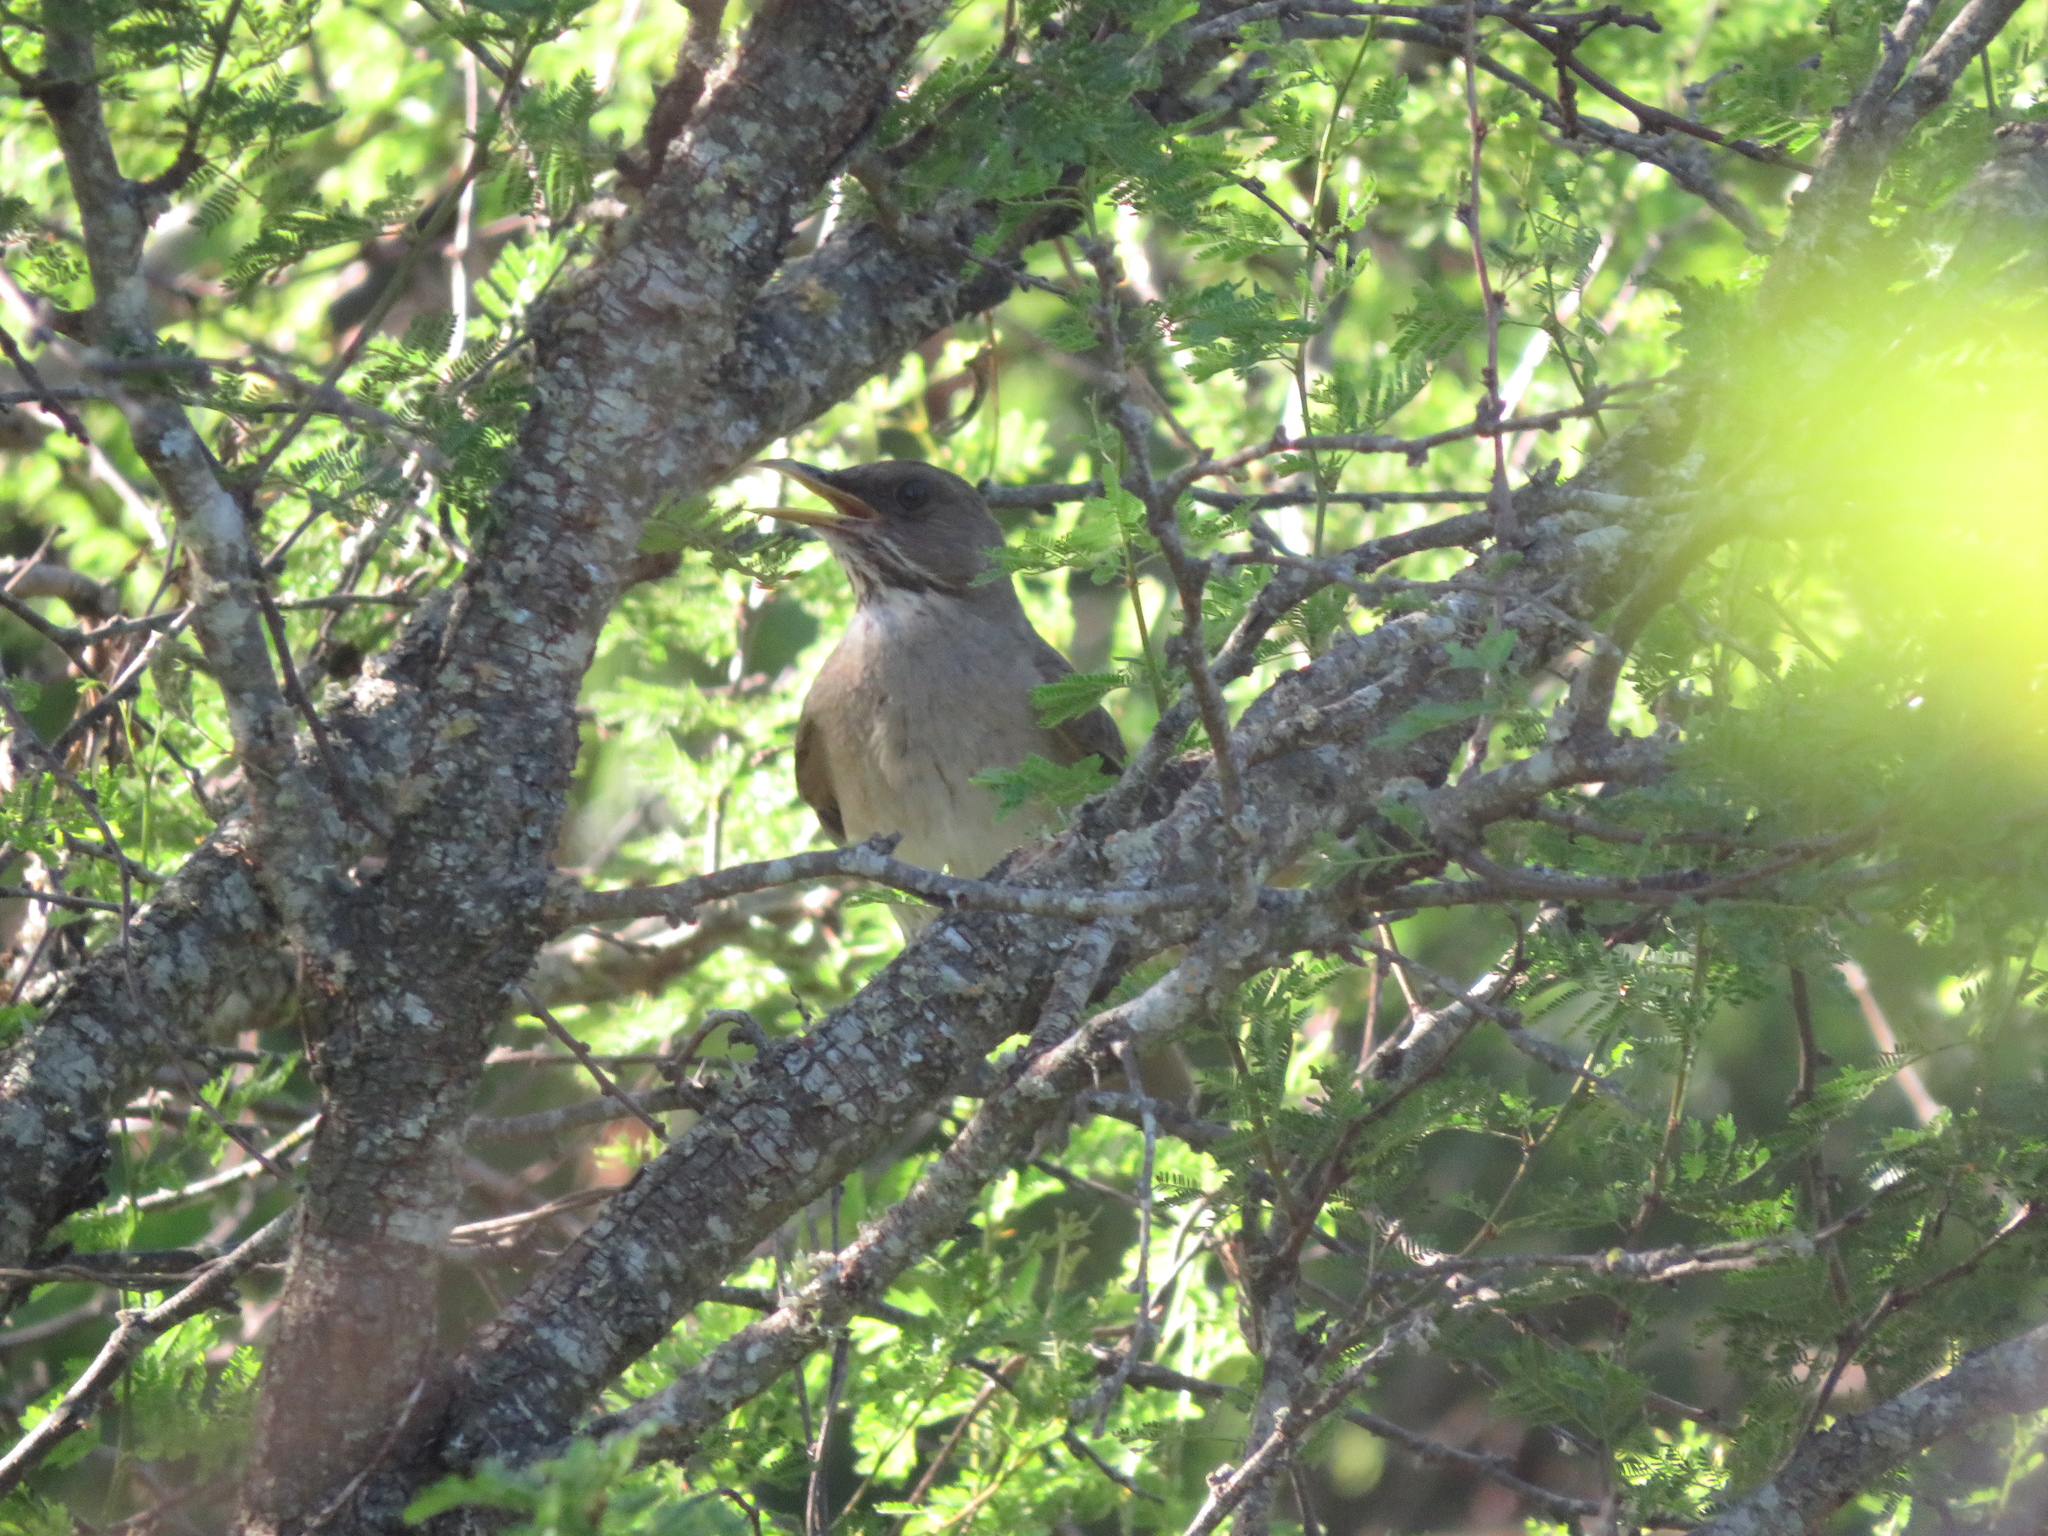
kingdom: Animalia
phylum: Chordata
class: Aves
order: Passeriformes
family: Turdidae
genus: Turdus
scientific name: Turdus amaurochalinus
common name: Creamy-bellied thrush
